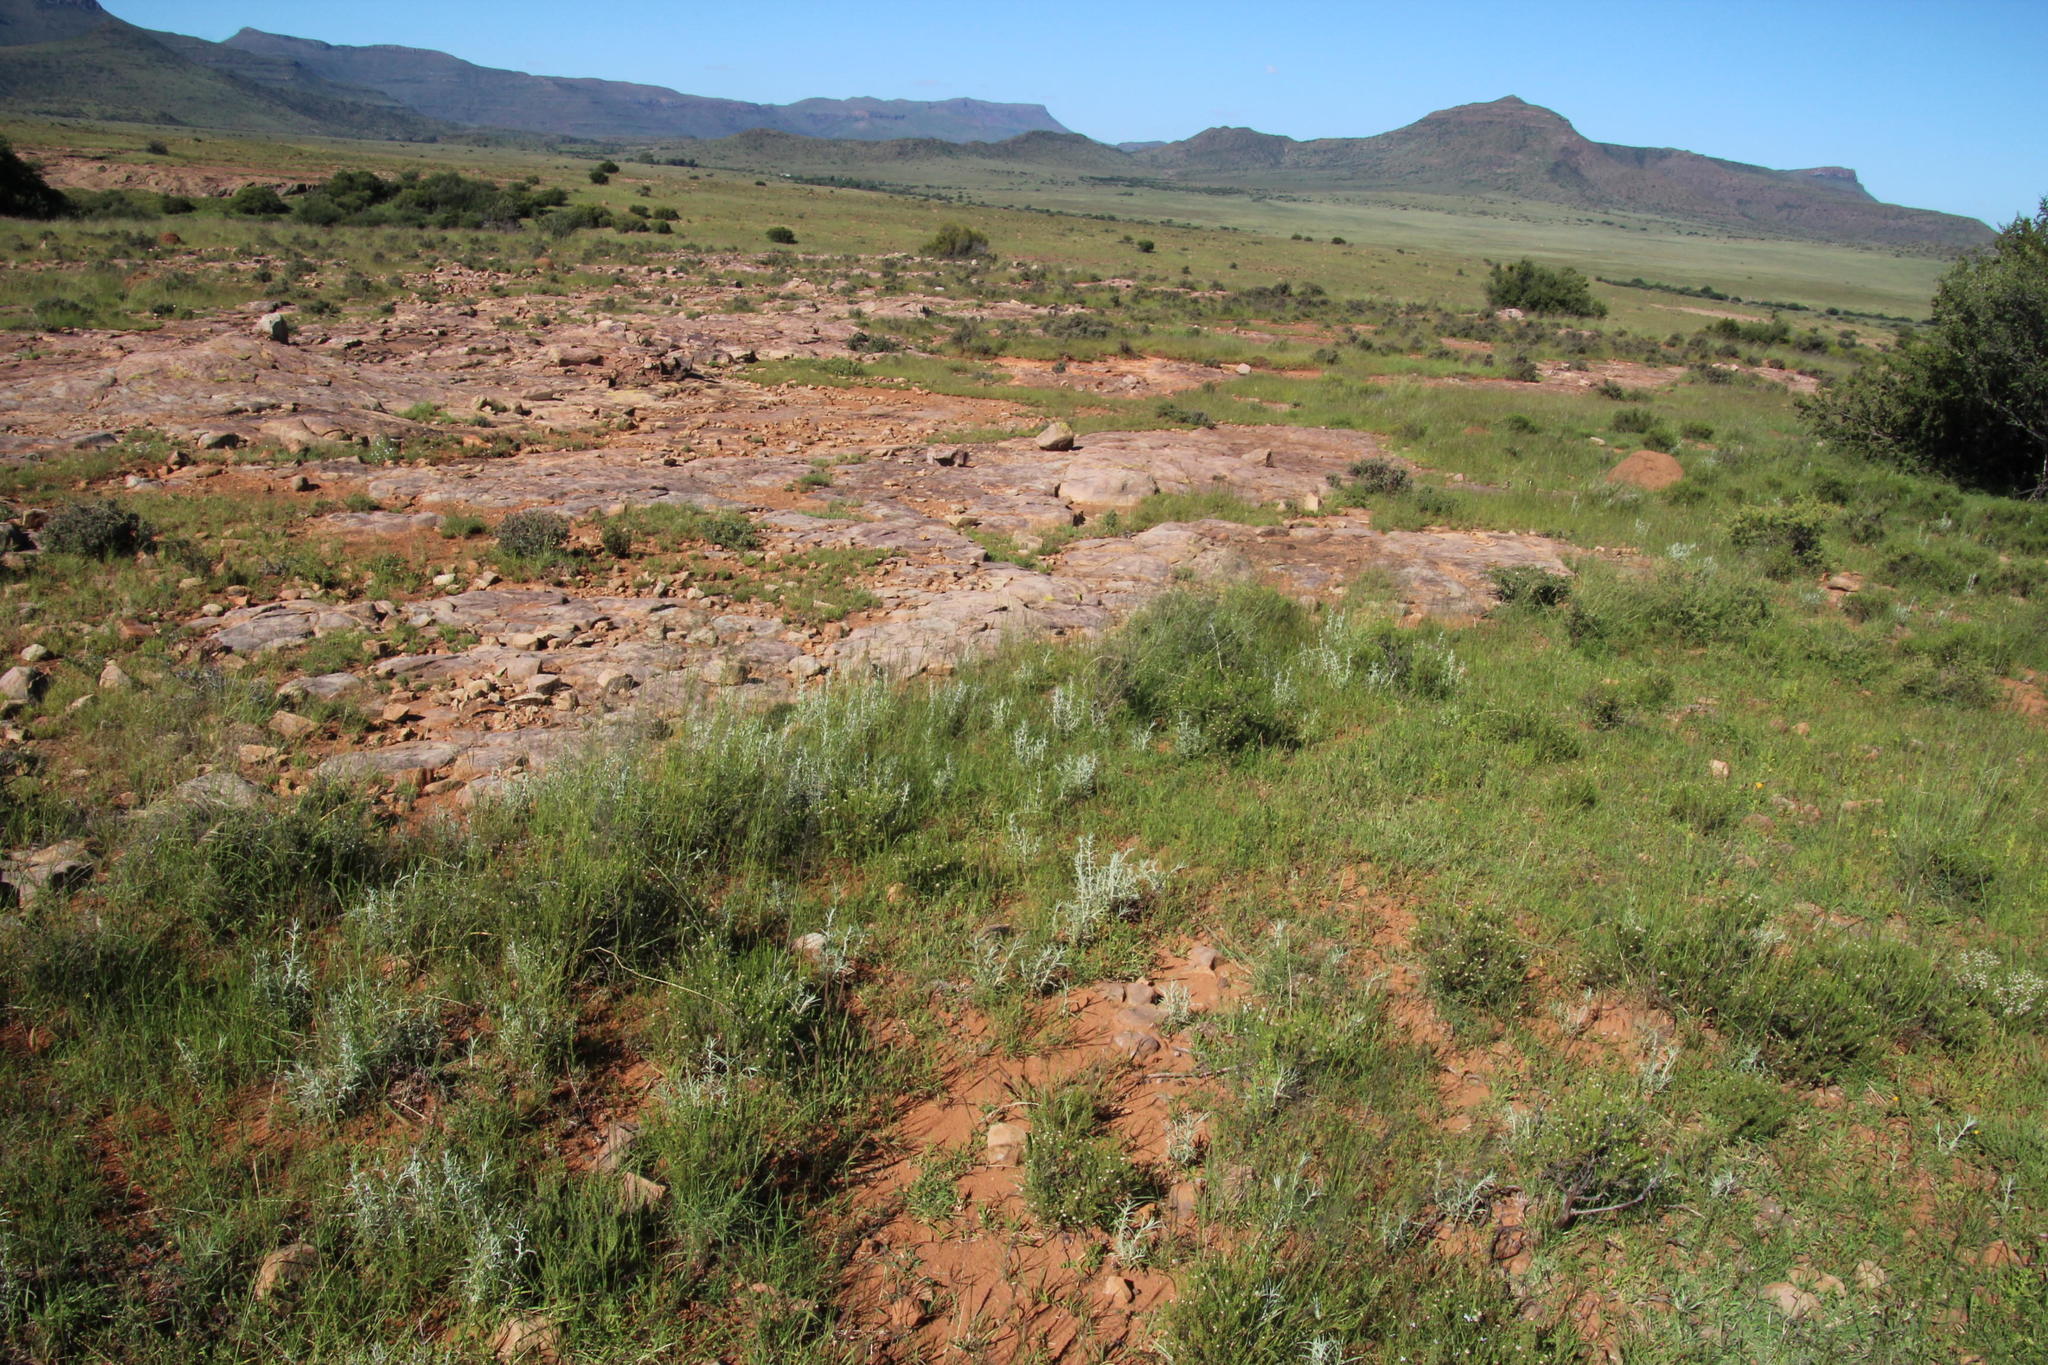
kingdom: Plantae
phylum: Tracheophyta
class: Magnoliopsida
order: Lamiales
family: Lamiaceae
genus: Stachys
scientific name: Stachys linearis
